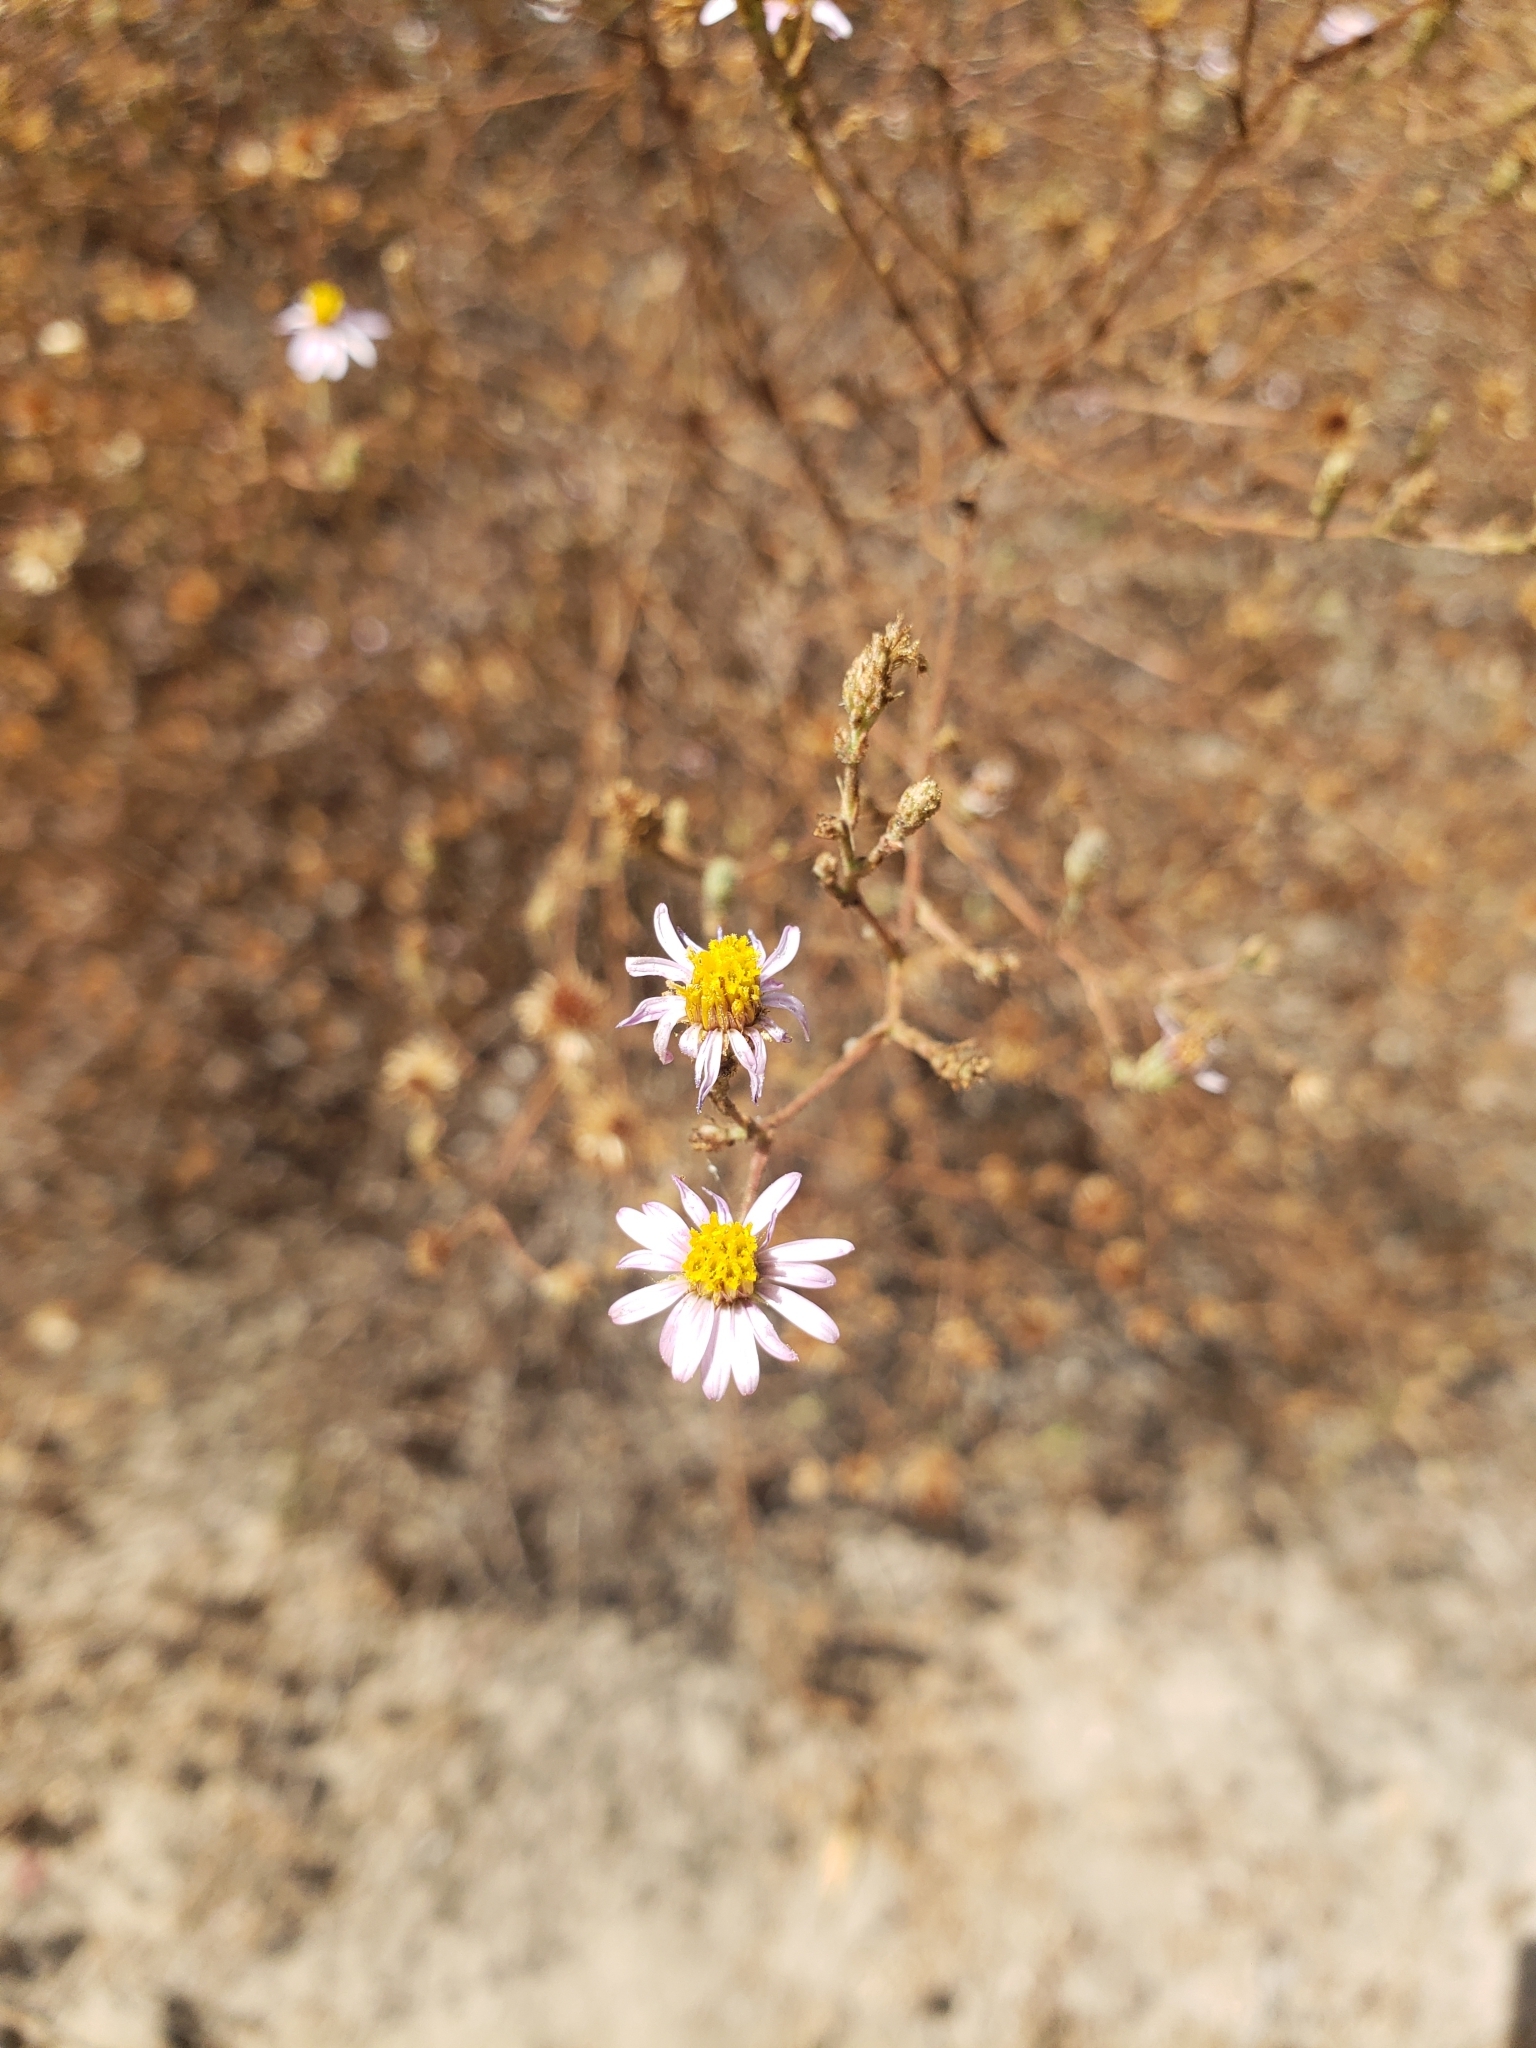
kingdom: Plantae
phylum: Tracheophyta
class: Magnoliopsida
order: Asterales
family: Asteraceae
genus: Corethrogyne
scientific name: Corethrogyne filaginifolia
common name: Sand-aster
